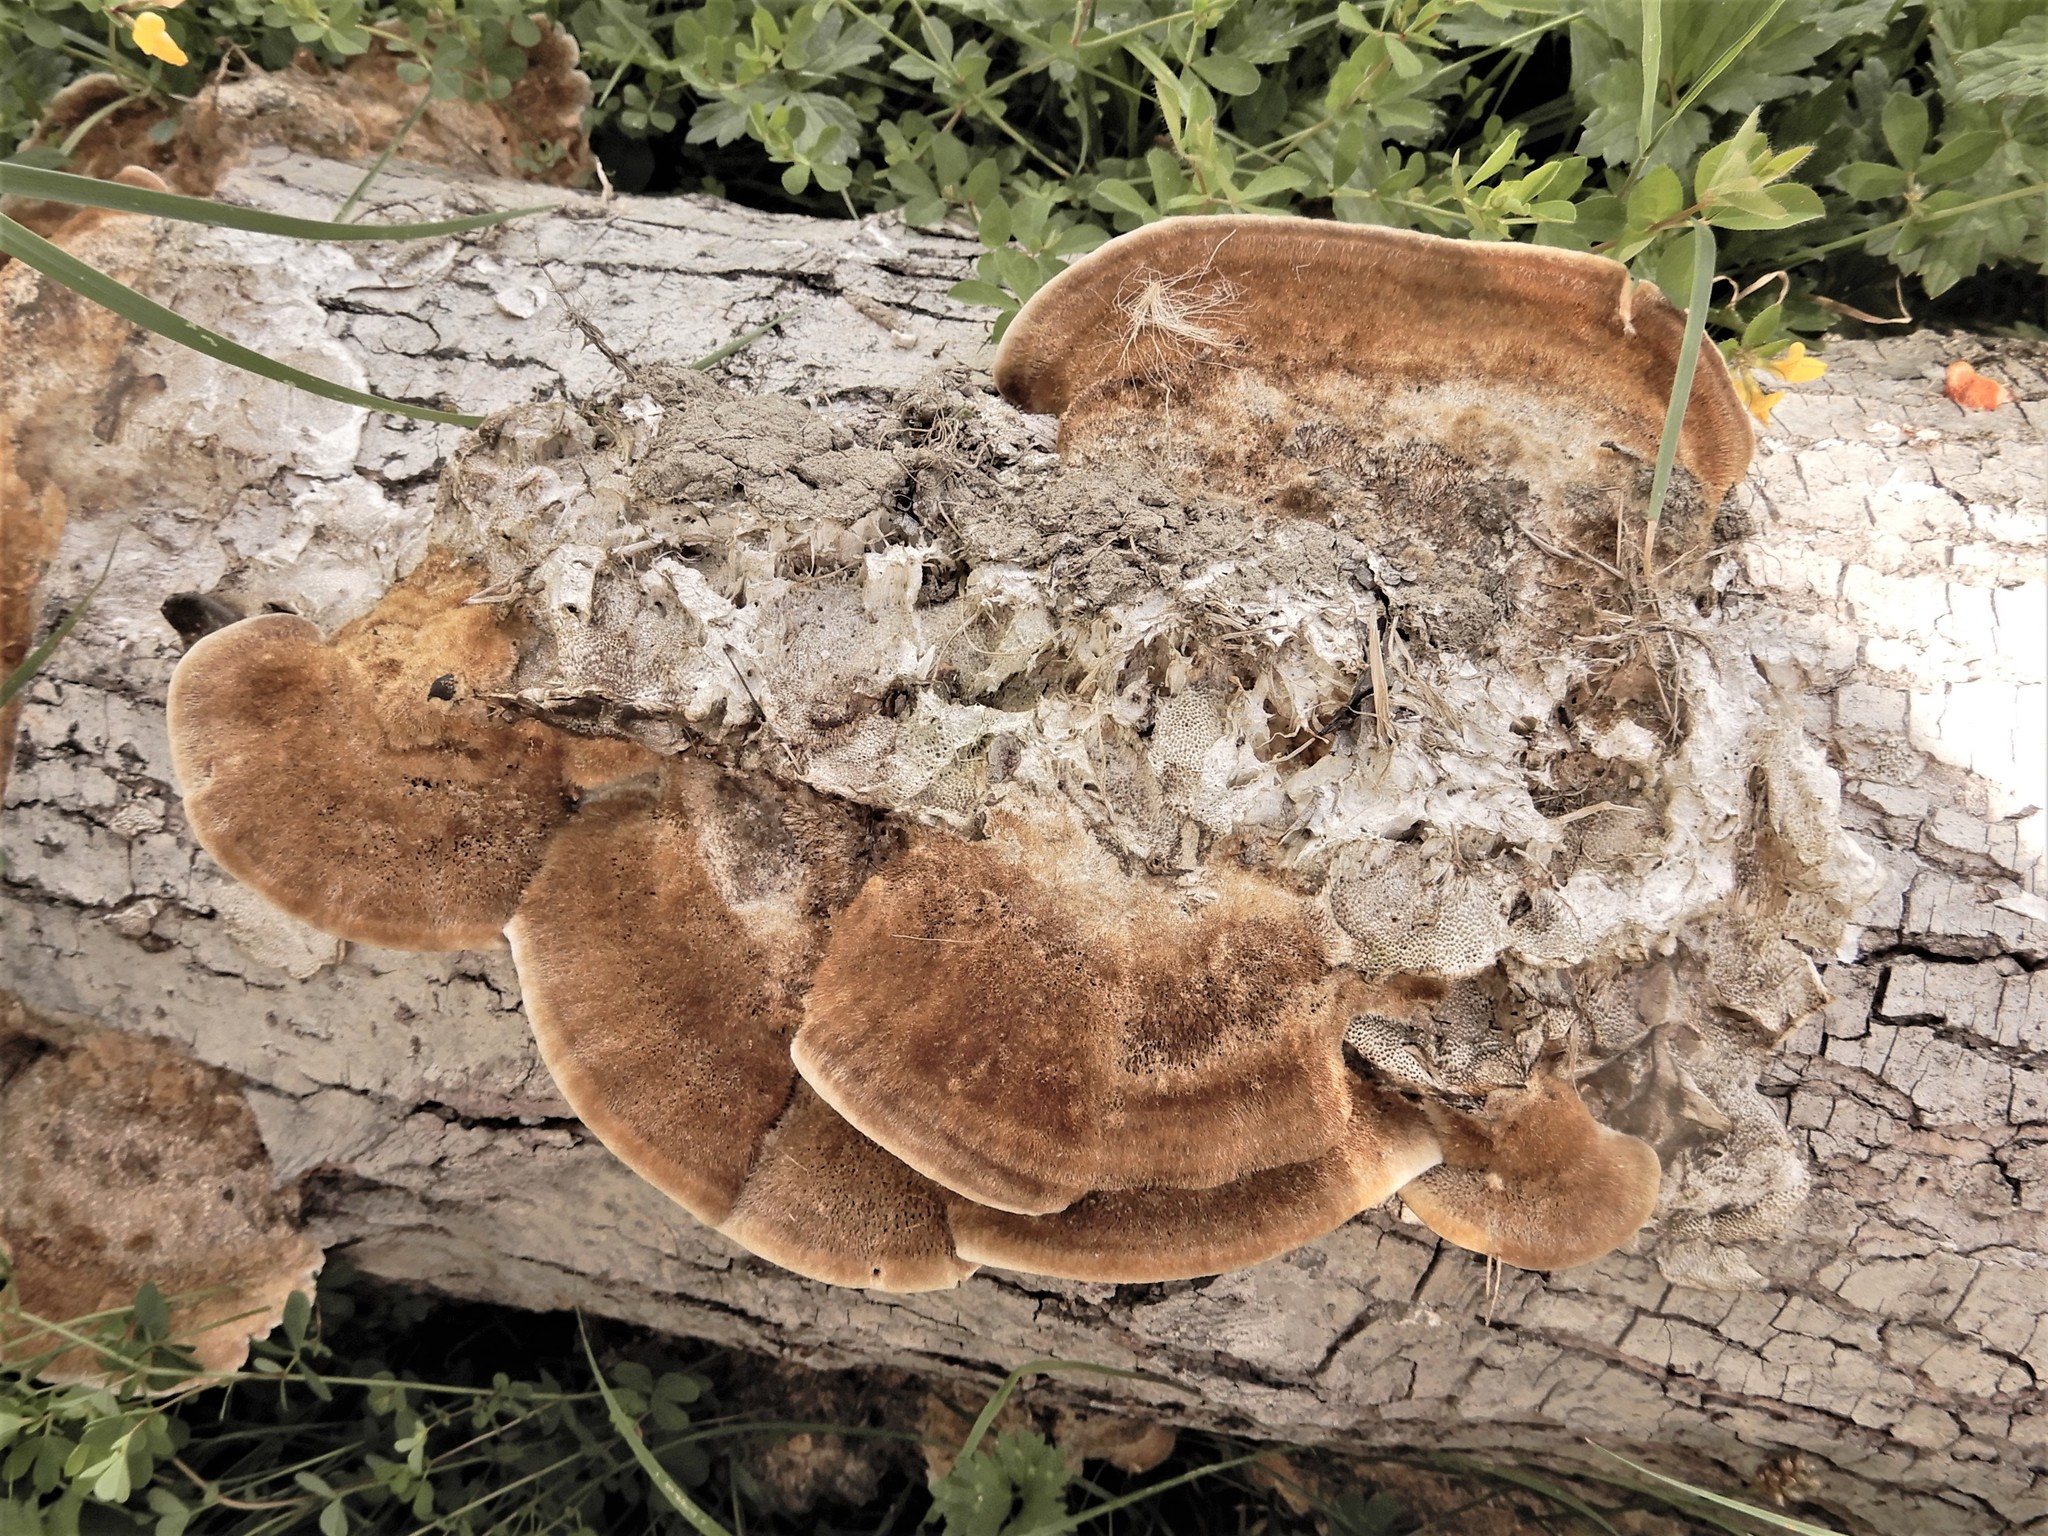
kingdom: Fungi
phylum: Basidiomycota
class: Agaricomycetes
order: Polyporales
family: Polyporaceae
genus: Trametes
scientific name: Trametes trogii
